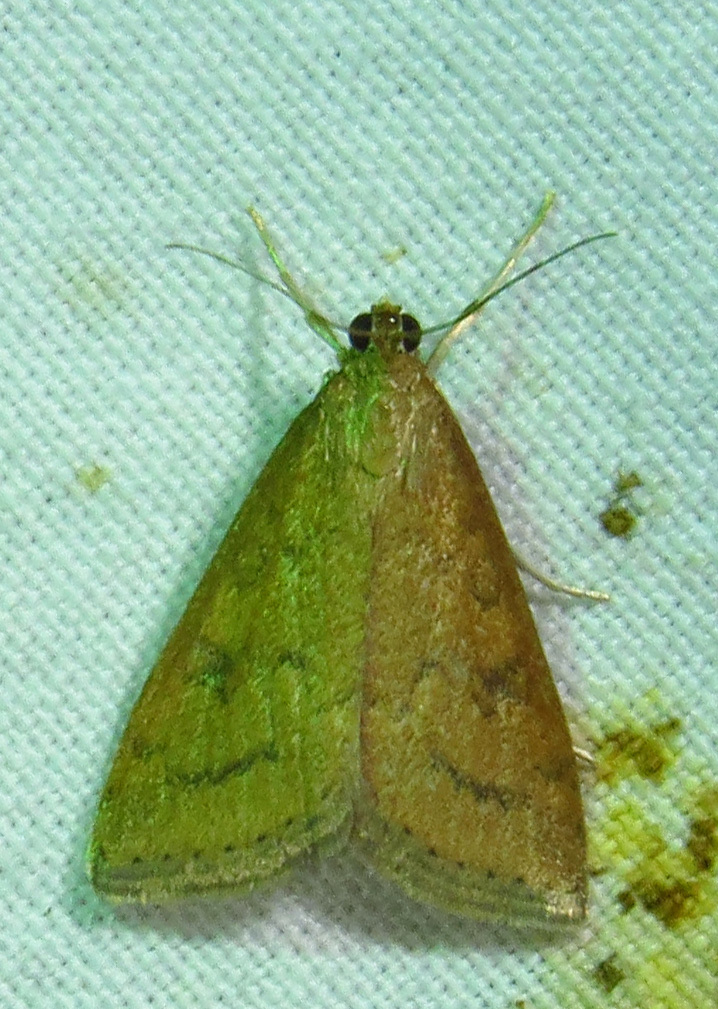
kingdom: Animalia
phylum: Arthropoda
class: Insecta
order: Lepidoptera
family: Crambidae
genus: Udea
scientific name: Udea rubigalis
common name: Celery leaftier moth
